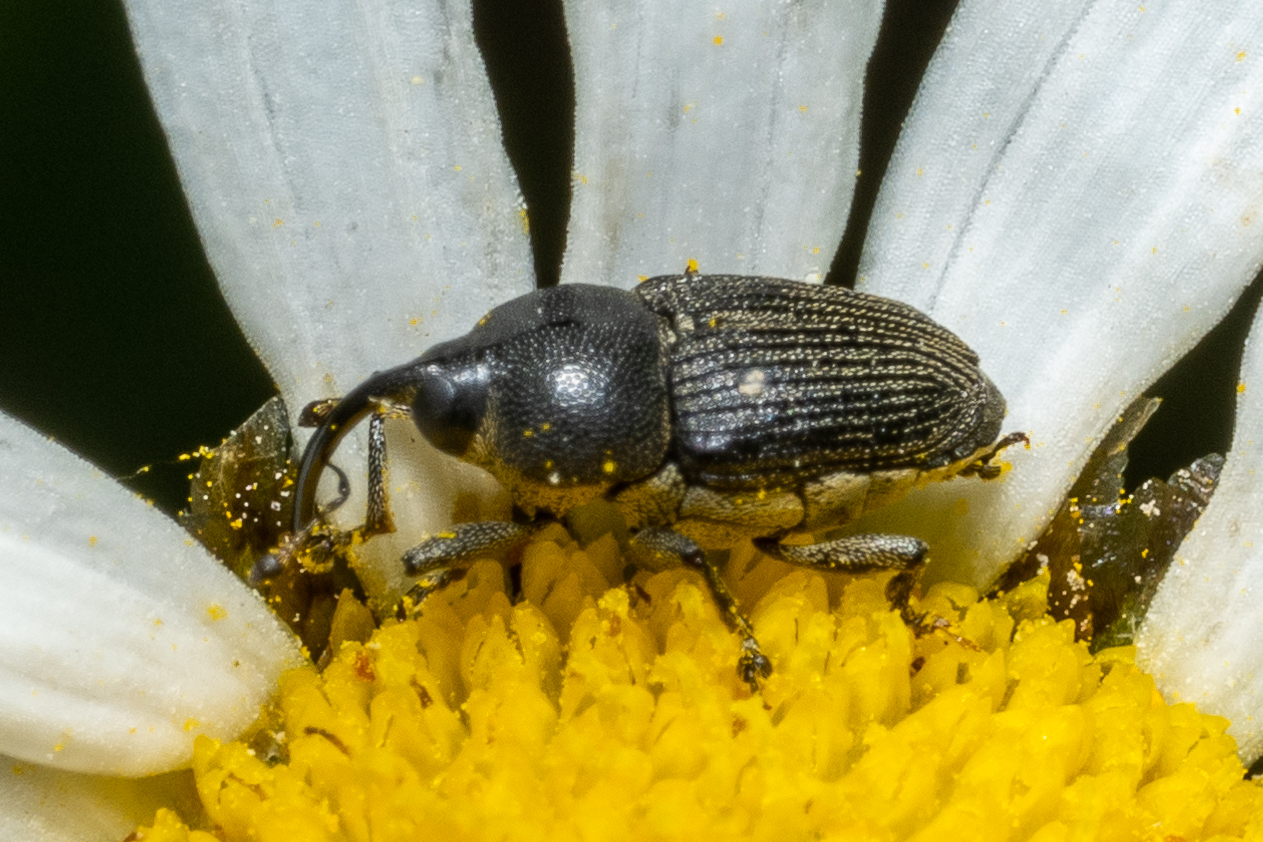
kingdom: Animalia
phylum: Arthropoda
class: Insecta
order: Coleoptera
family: Curculionidae
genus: Odontocorynus
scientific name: Odontocorynus salebrosus
